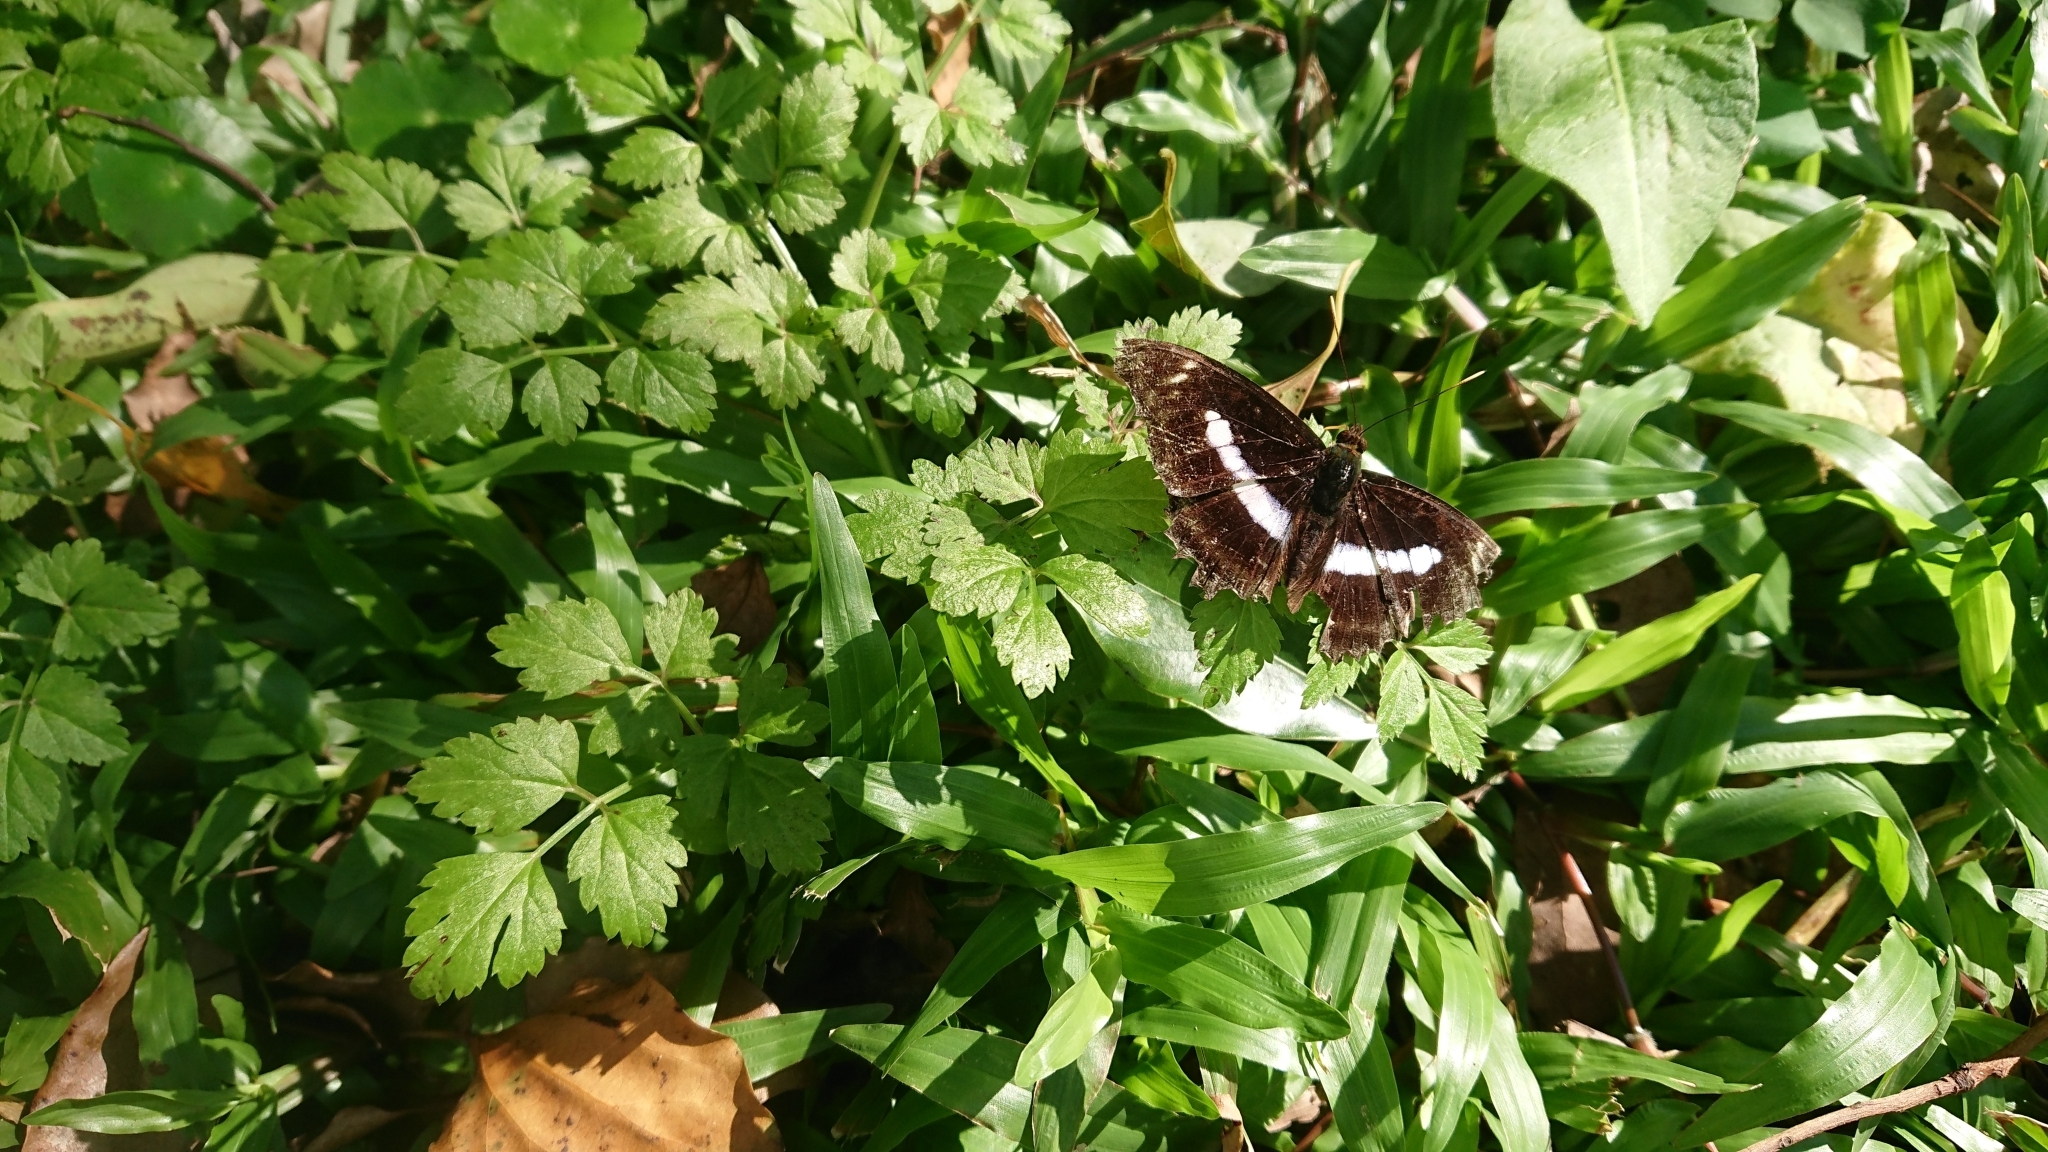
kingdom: Animalia
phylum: Arthropoda
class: Insecta
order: Lepidoptera
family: Nymphalidae
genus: Parathyma
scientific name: Parathyma selenophora
